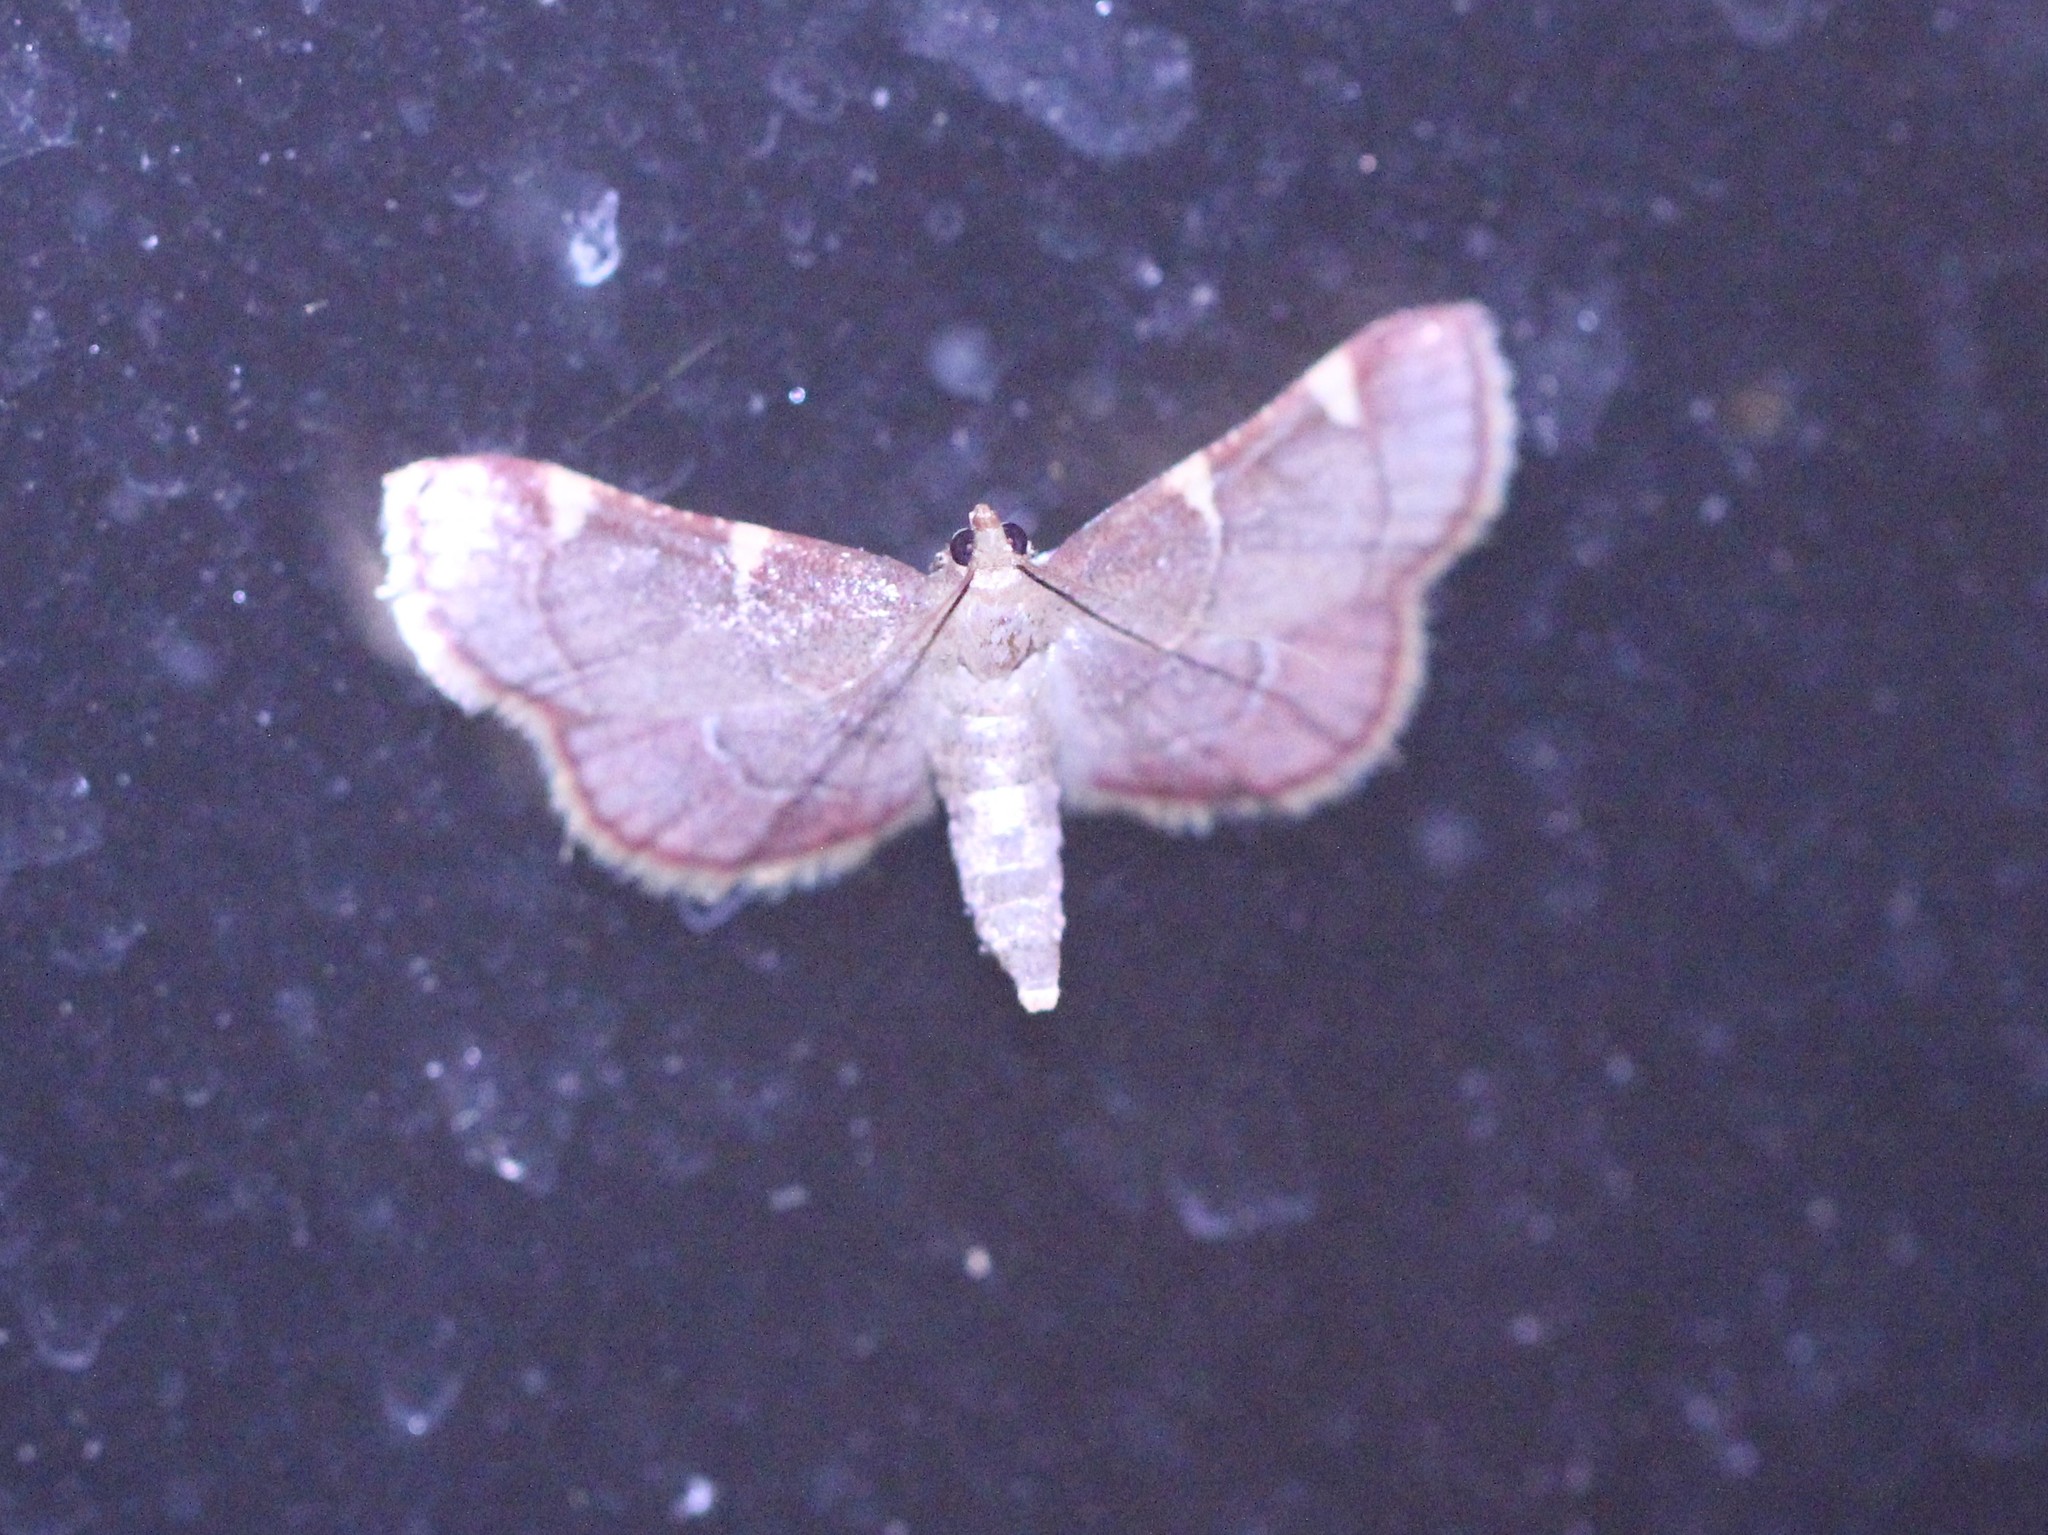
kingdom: Animalia
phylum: Arthropoda
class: Insecta
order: Lepidoptera
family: Pyralidae
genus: Hypsopygia
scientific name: Hypsopygia olinalis
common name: Yellow-fringed dolichomia moth
